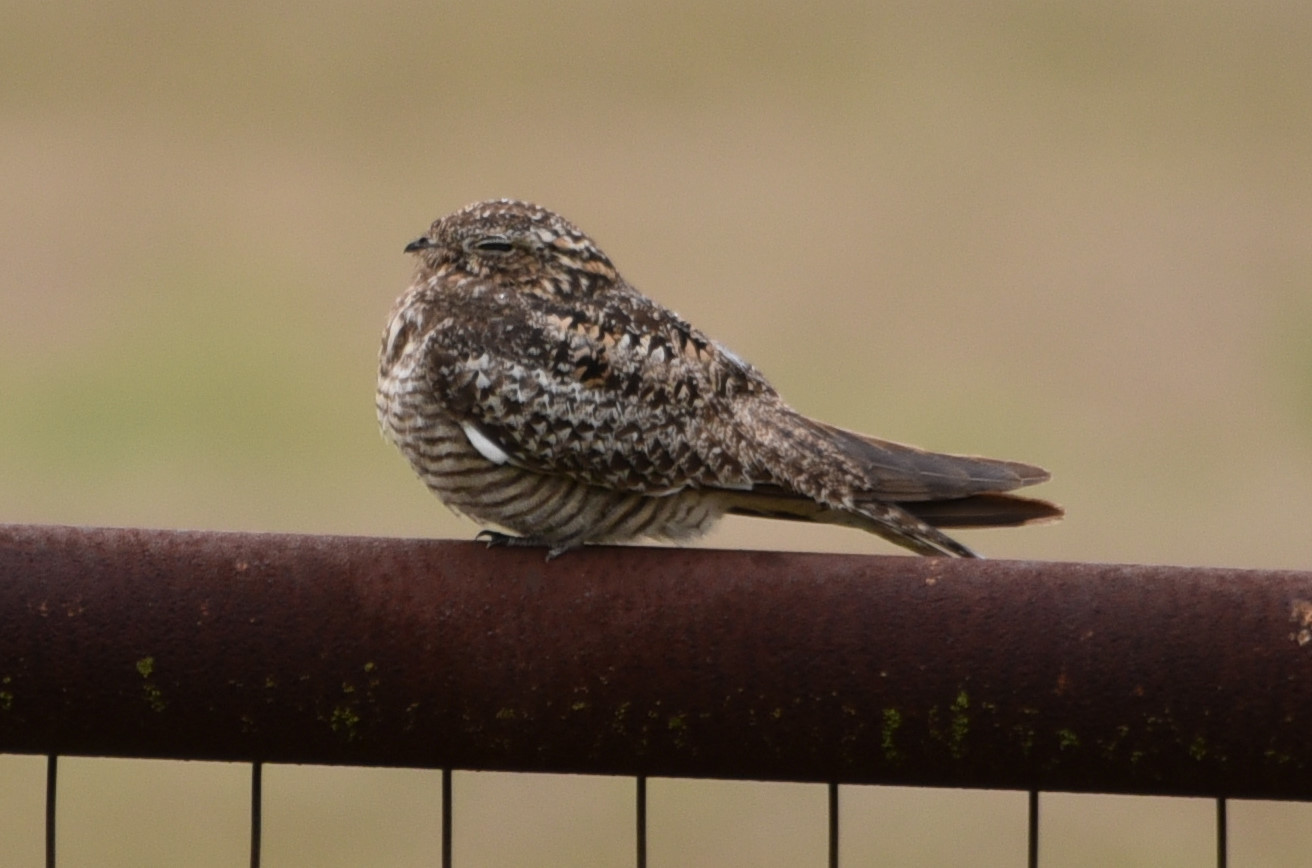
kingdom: Animalia
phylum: Chordata
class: Aves
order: Caprimulgiformes
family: Caprimulgidae
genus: Chordeiles
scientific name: Chordeiles minor
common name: Common nighthawk
